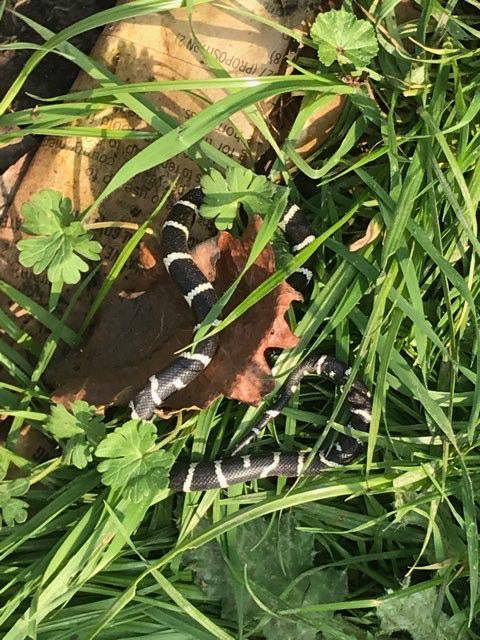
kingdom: Animalia
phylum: Chordata
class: Squamata
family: Colubridae
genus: Lampropeltis
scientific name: Lampropeltis californiae
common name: California kingsnake
